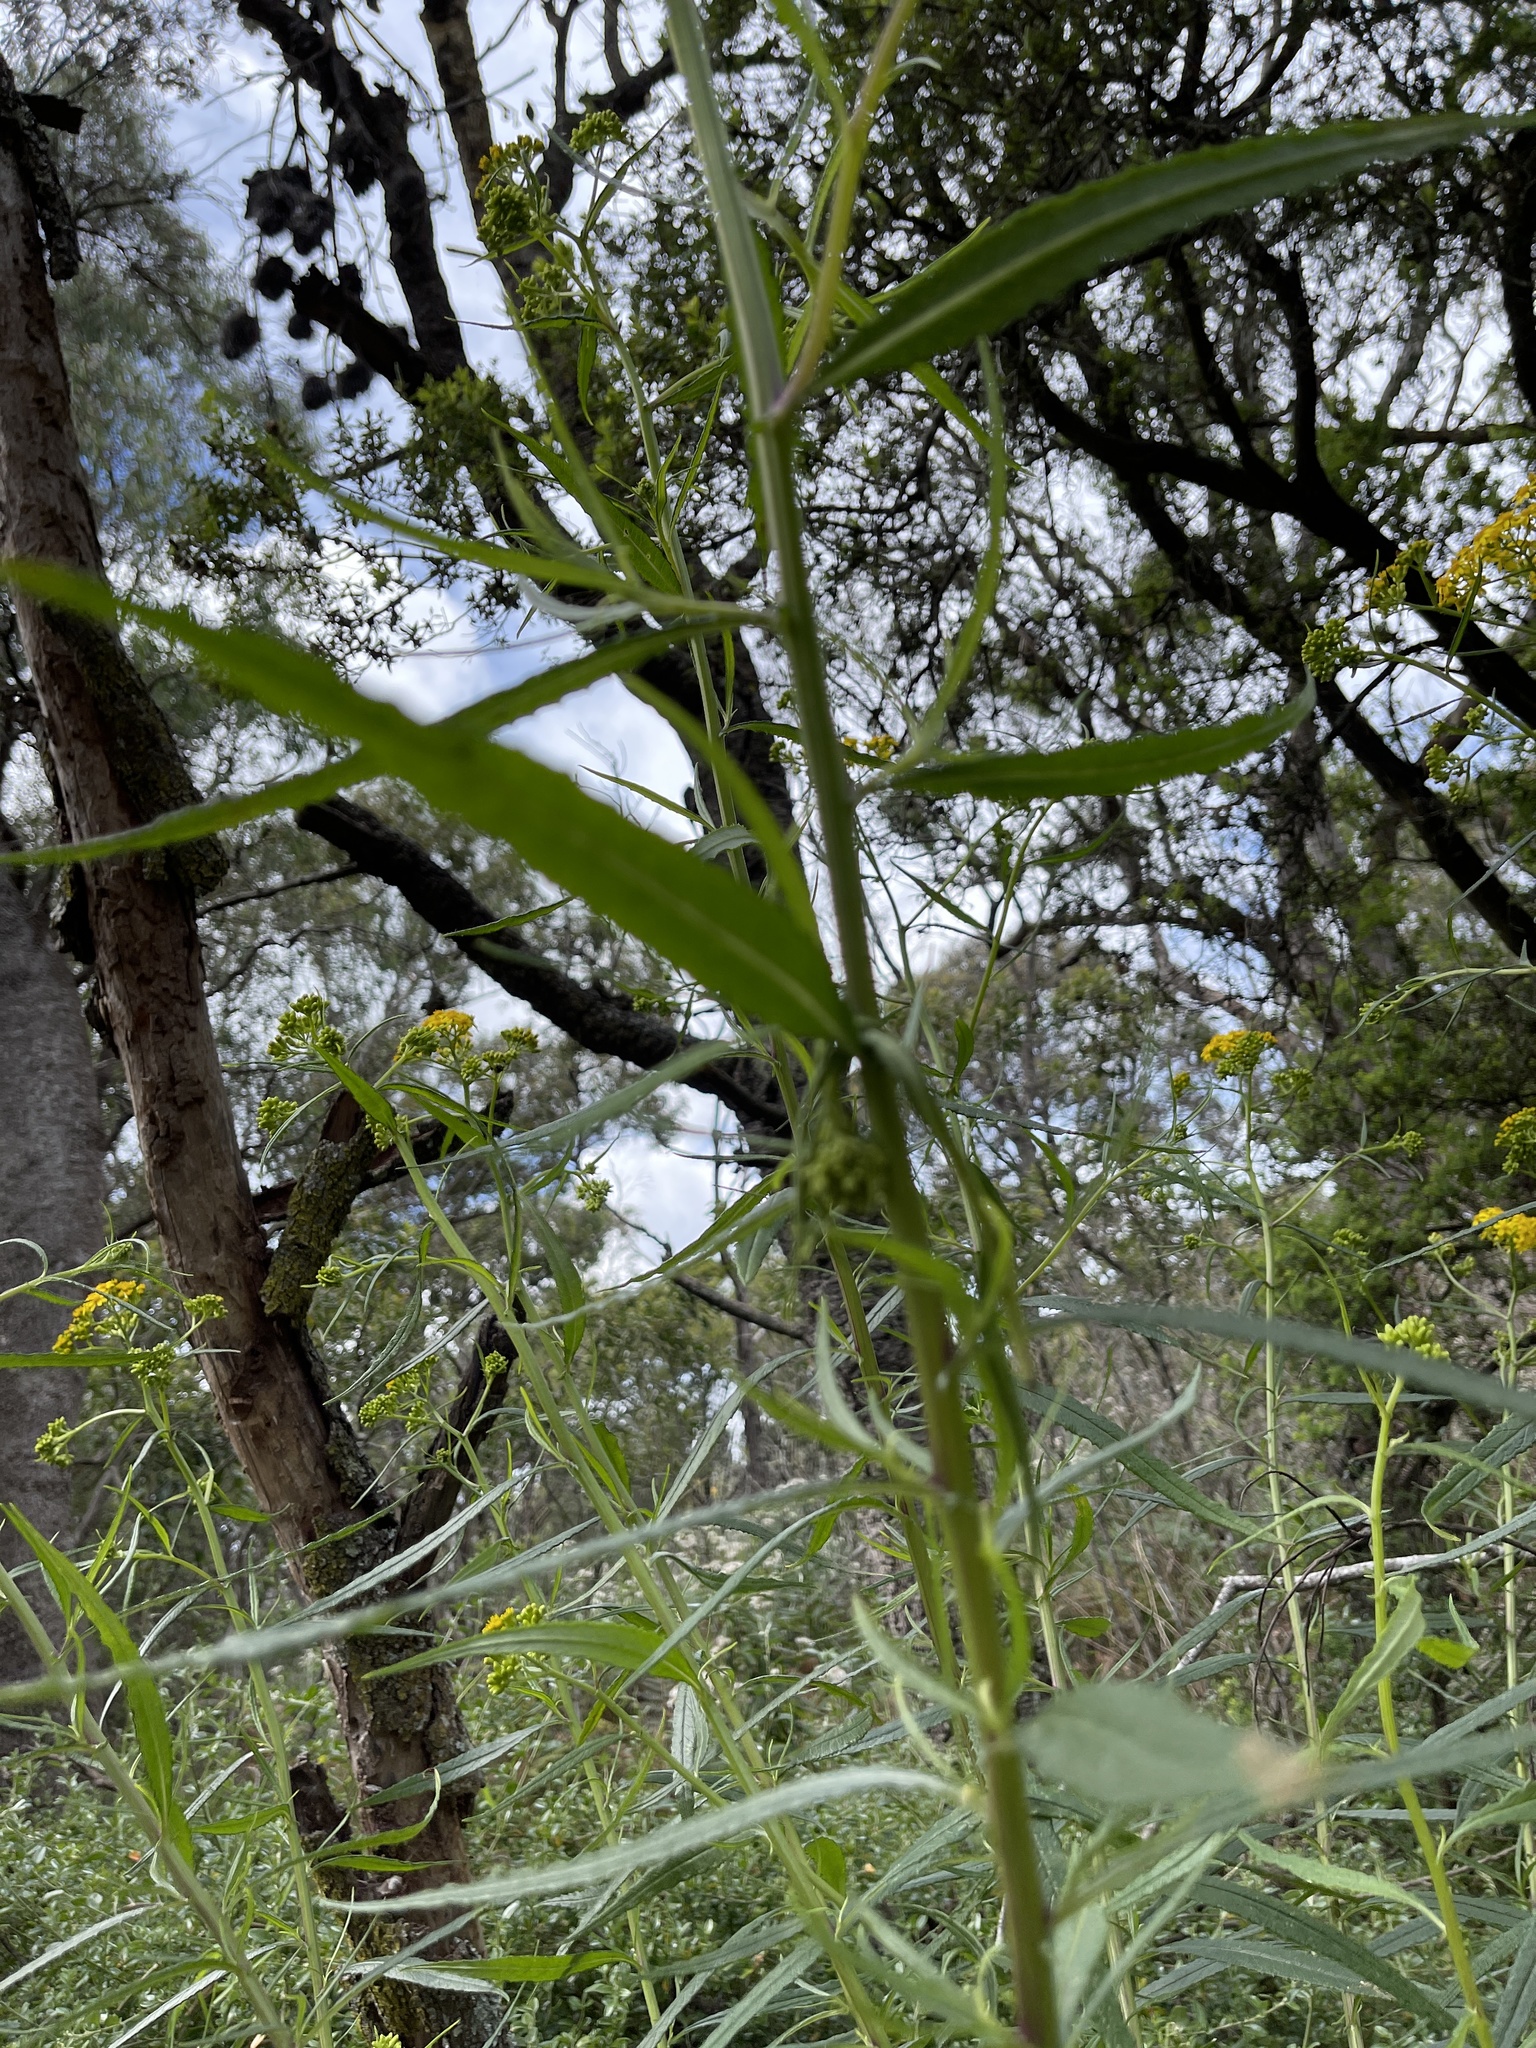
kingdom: Plantae
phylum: Tracheophyta
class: Magnoliopsida
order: Asterales
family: Asteraceae
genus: Senecio
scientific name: Senecio linearifolius
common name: Fireweed groundsel
